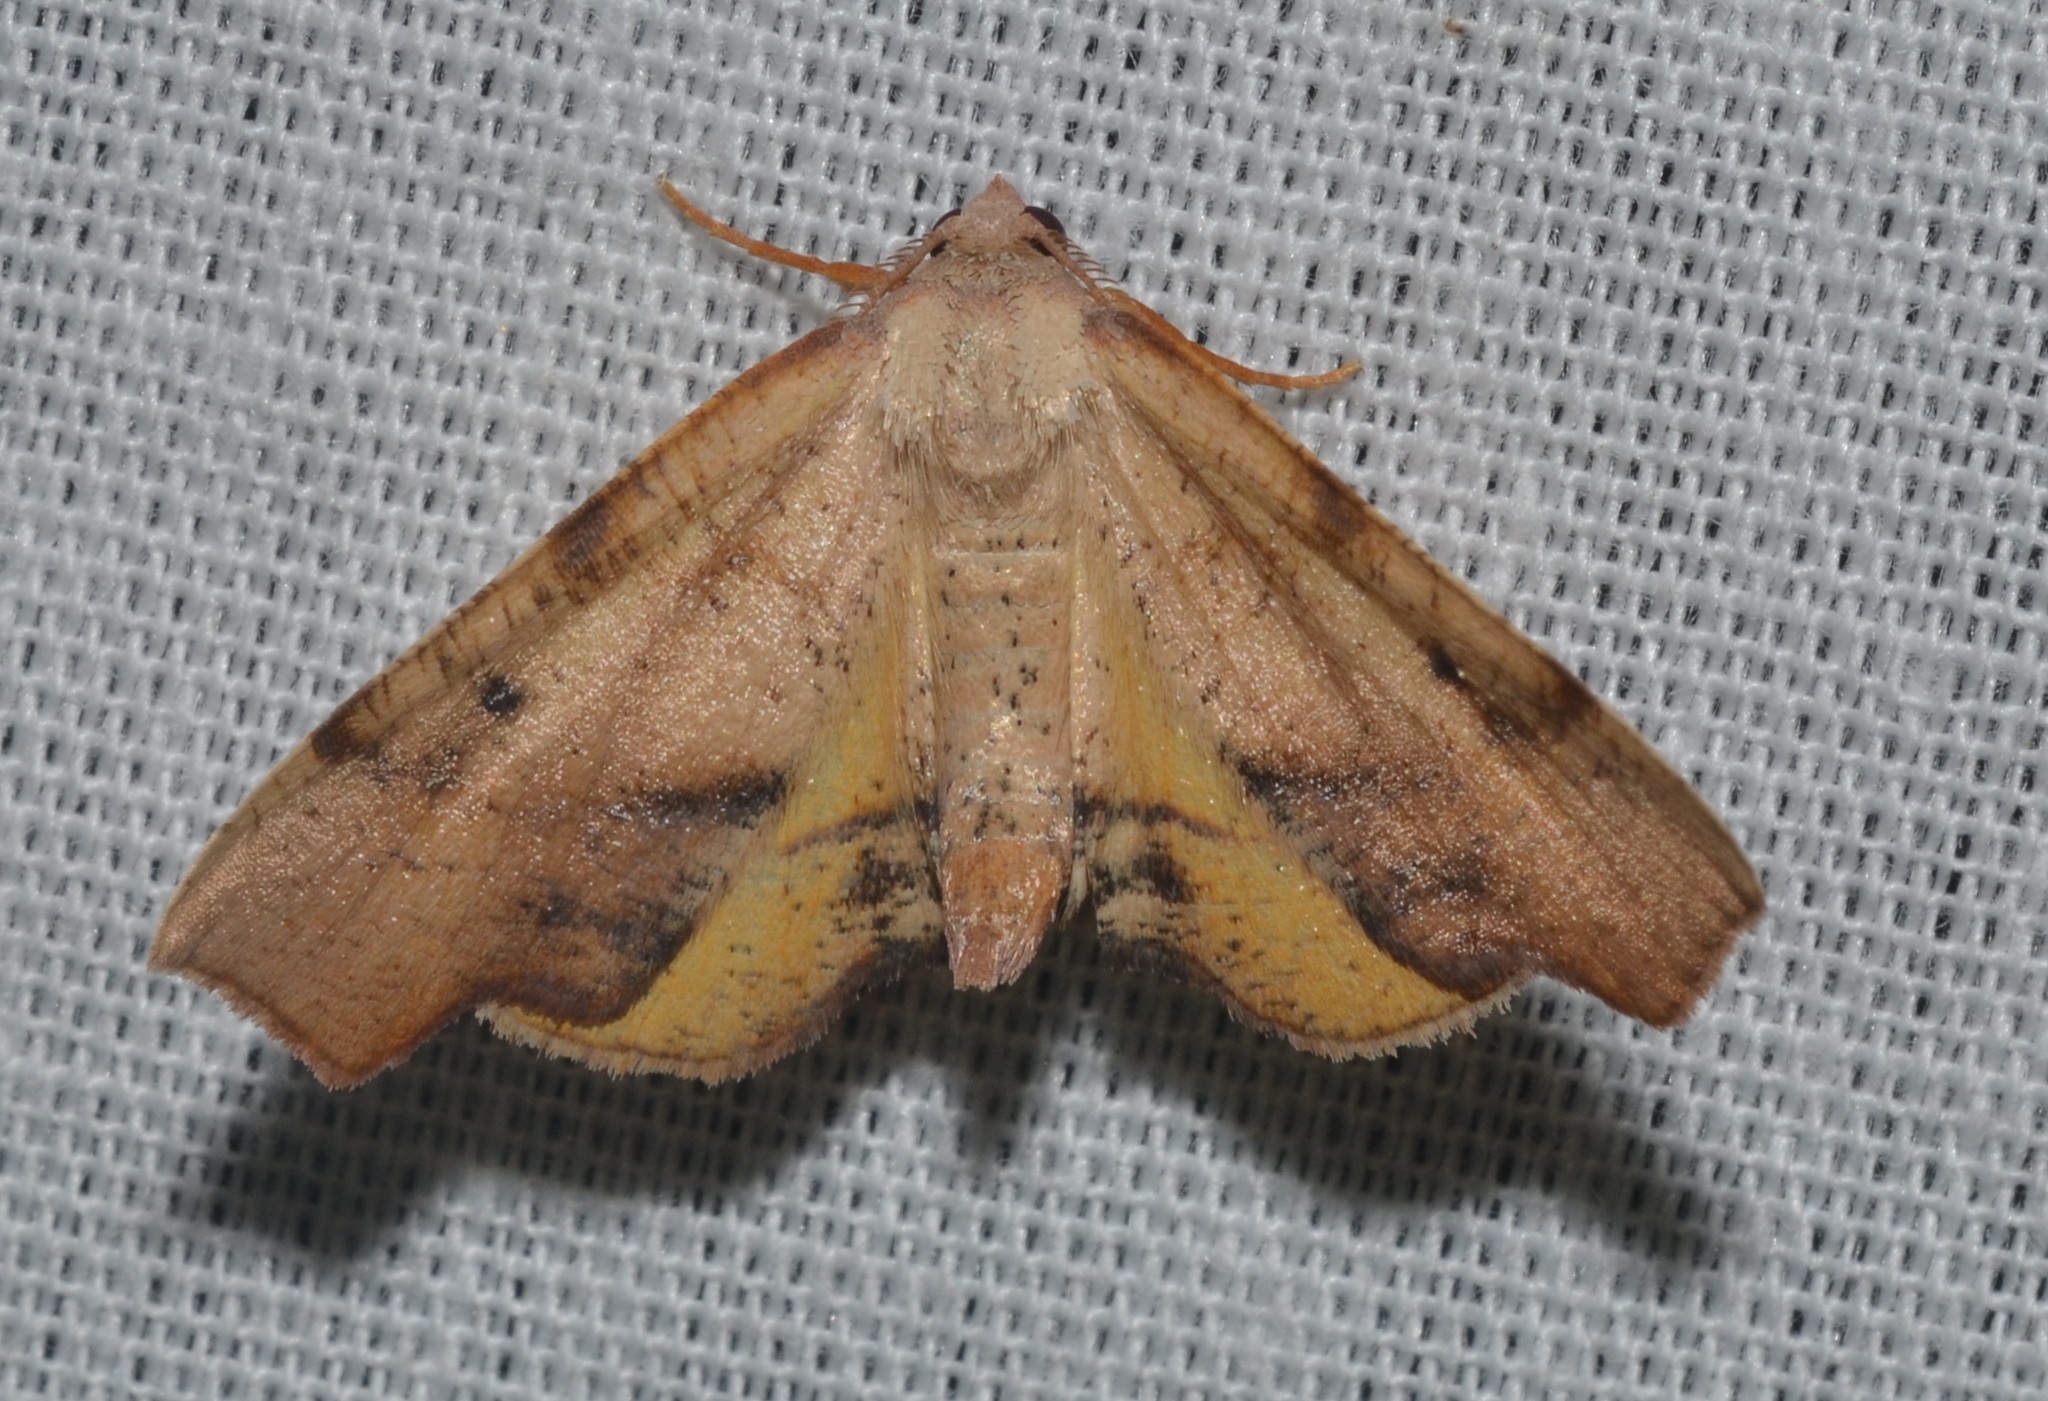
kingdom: Animalia
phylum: Arthropoda
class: Insecta
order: Lepidoptera
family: Geometridae
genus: Plagodis
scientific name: Plagodis fervidaria
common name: Fervid plagodis
